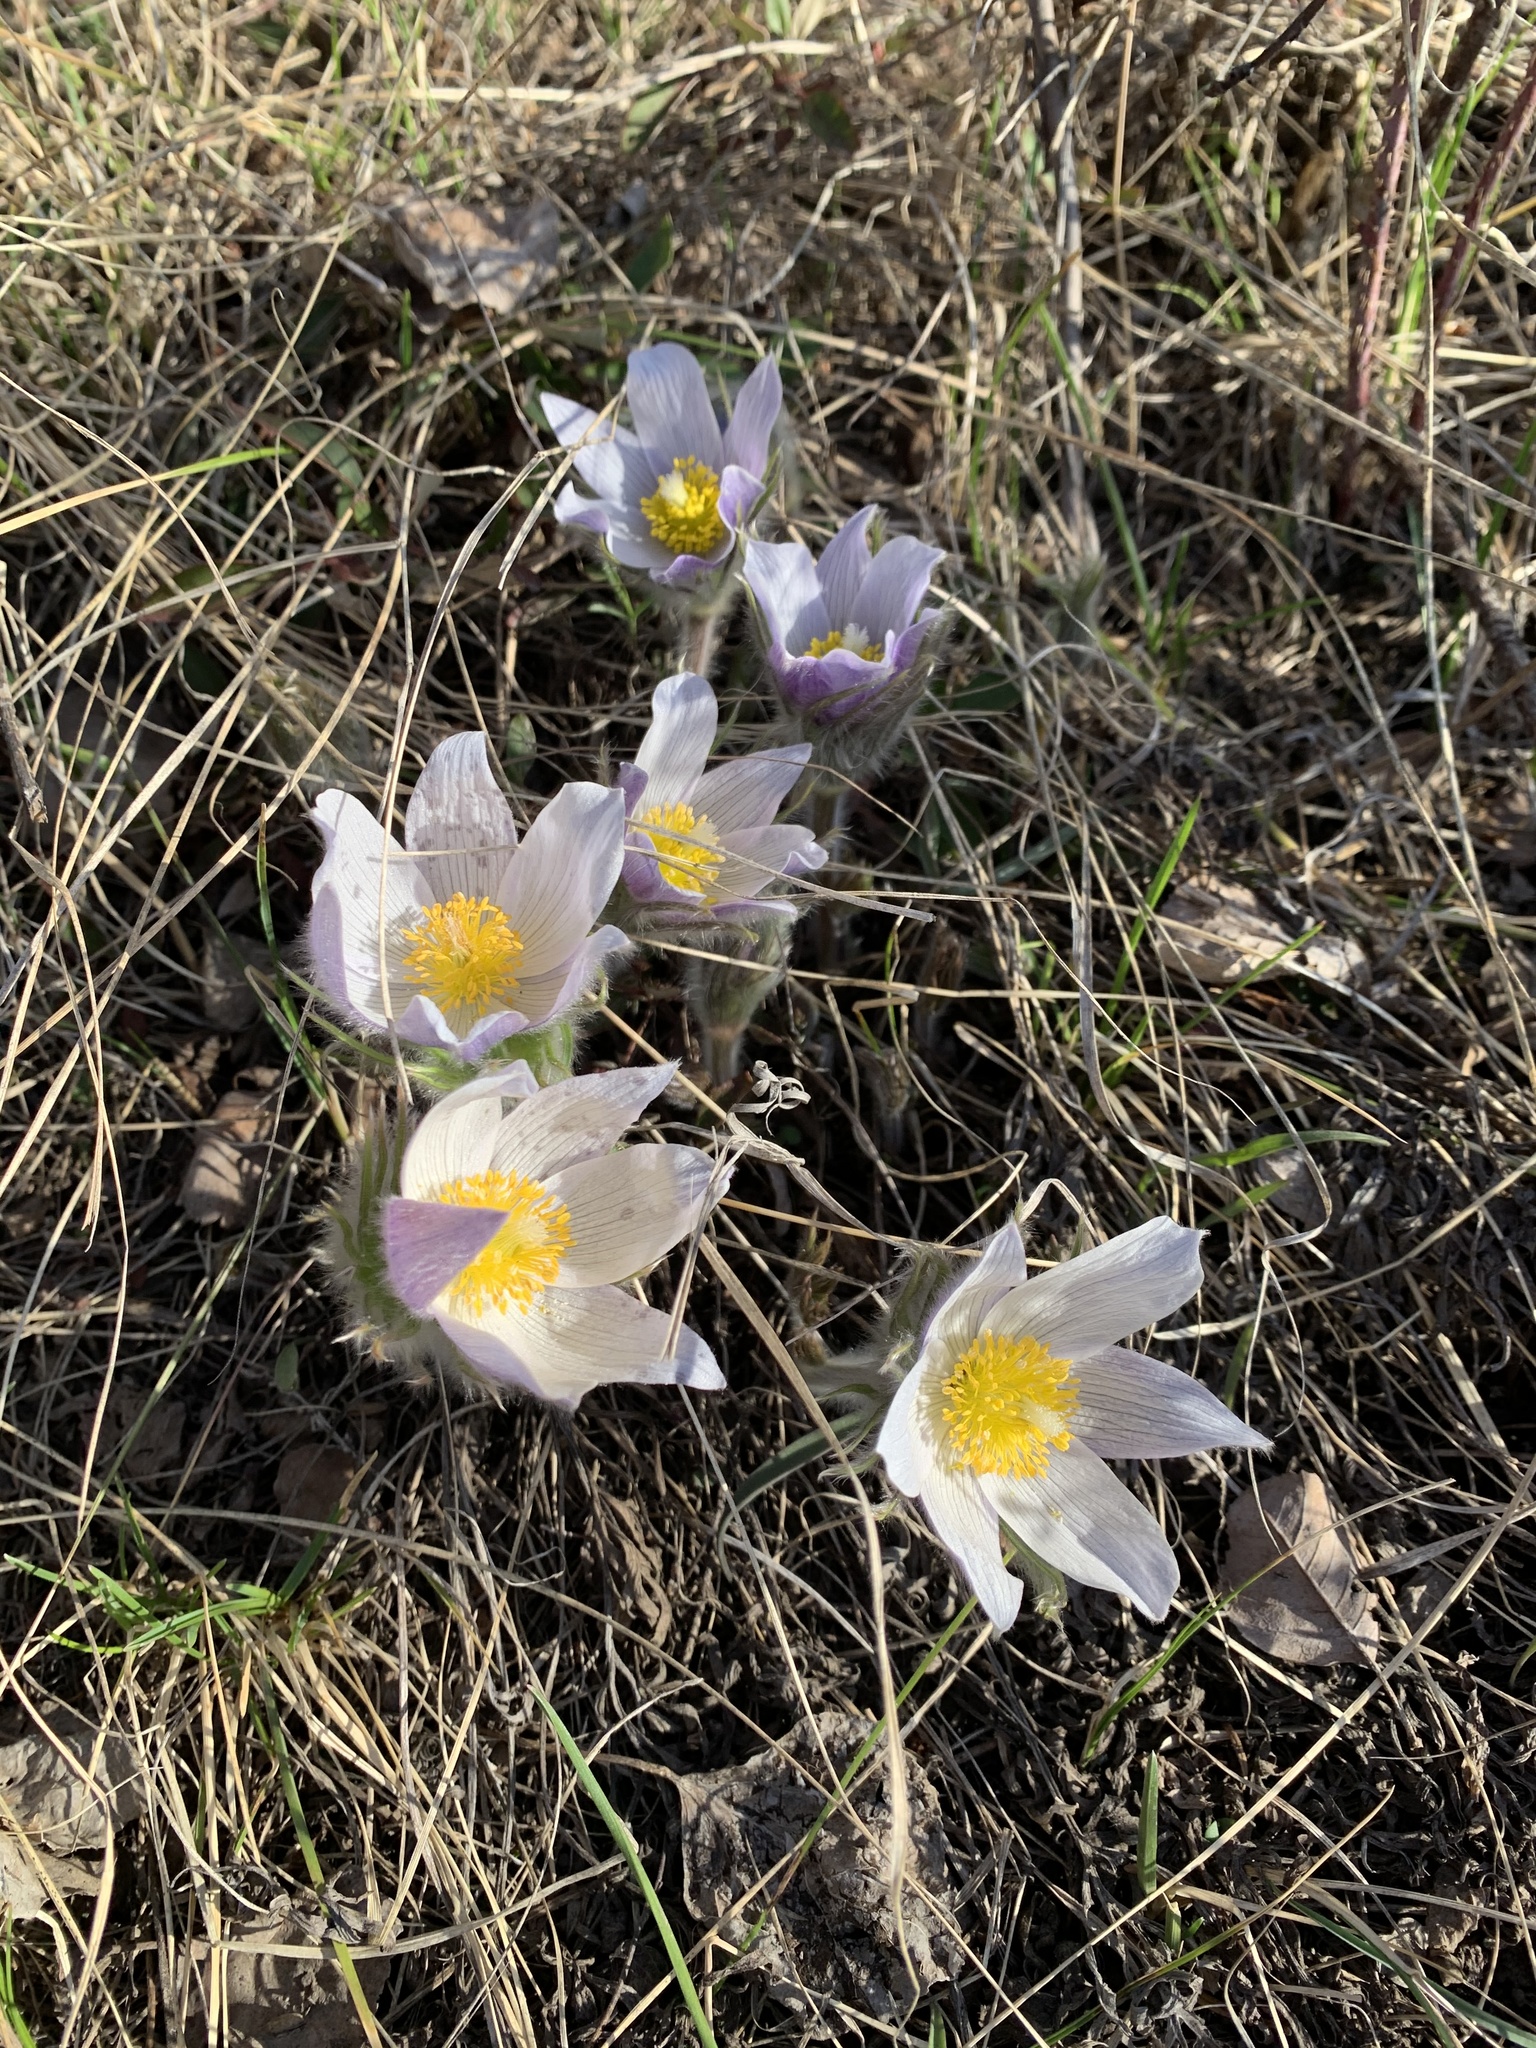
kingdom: Plantae
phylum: Tracheophyta
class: Magnoliopsida
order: Ranunculales
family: Ranunculaceae
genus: Pulsatilla
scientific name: Pulsatilla nuttalliana
